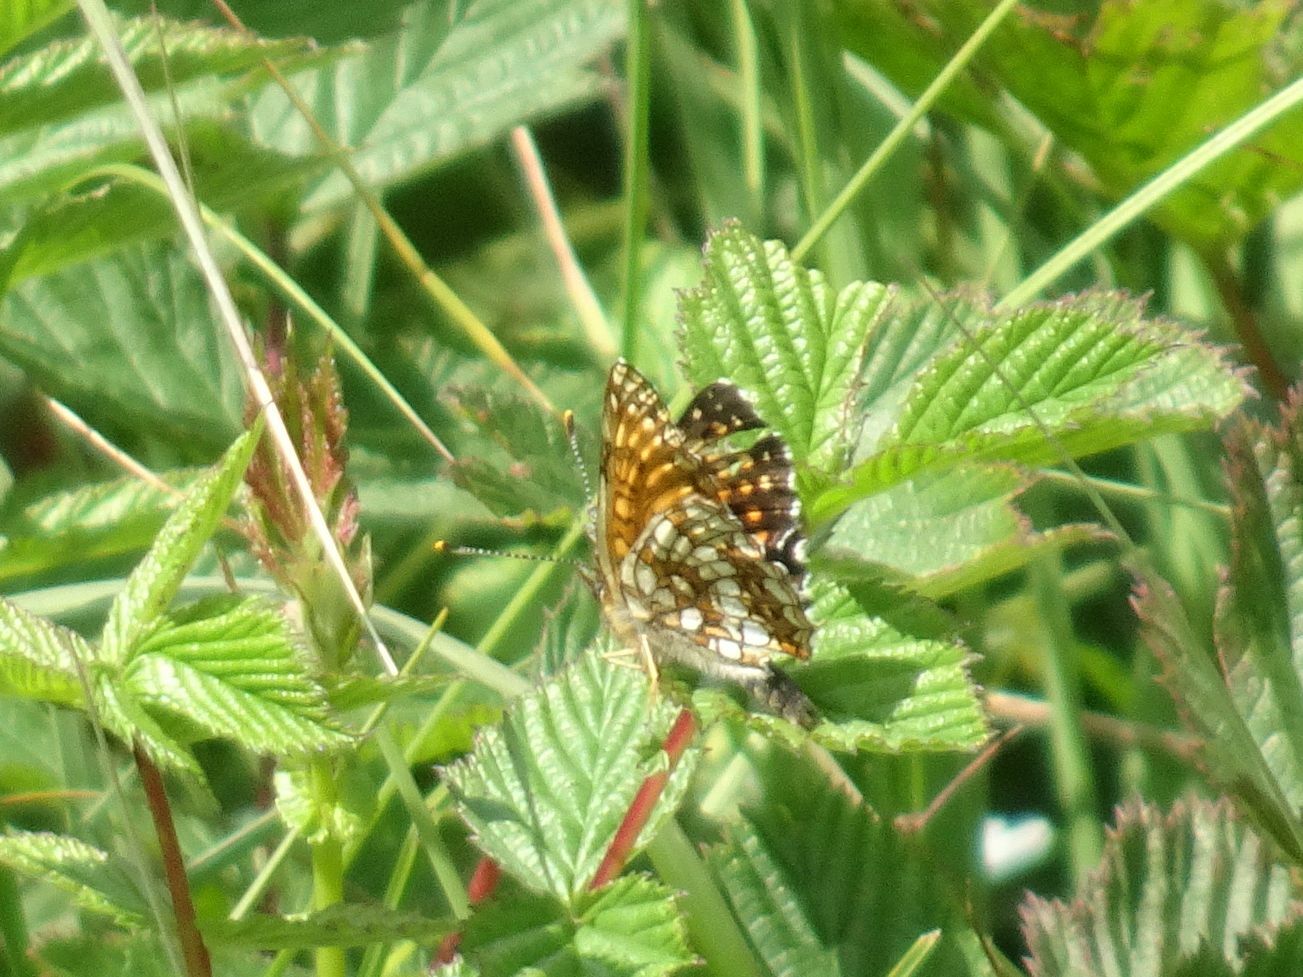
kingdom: Animalia
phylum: Arthropoda
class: Insecta
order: Lepidoptera
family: Nymphalidae
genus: Melitaea
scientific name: Melitaea diamina
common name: False heath fritillary
